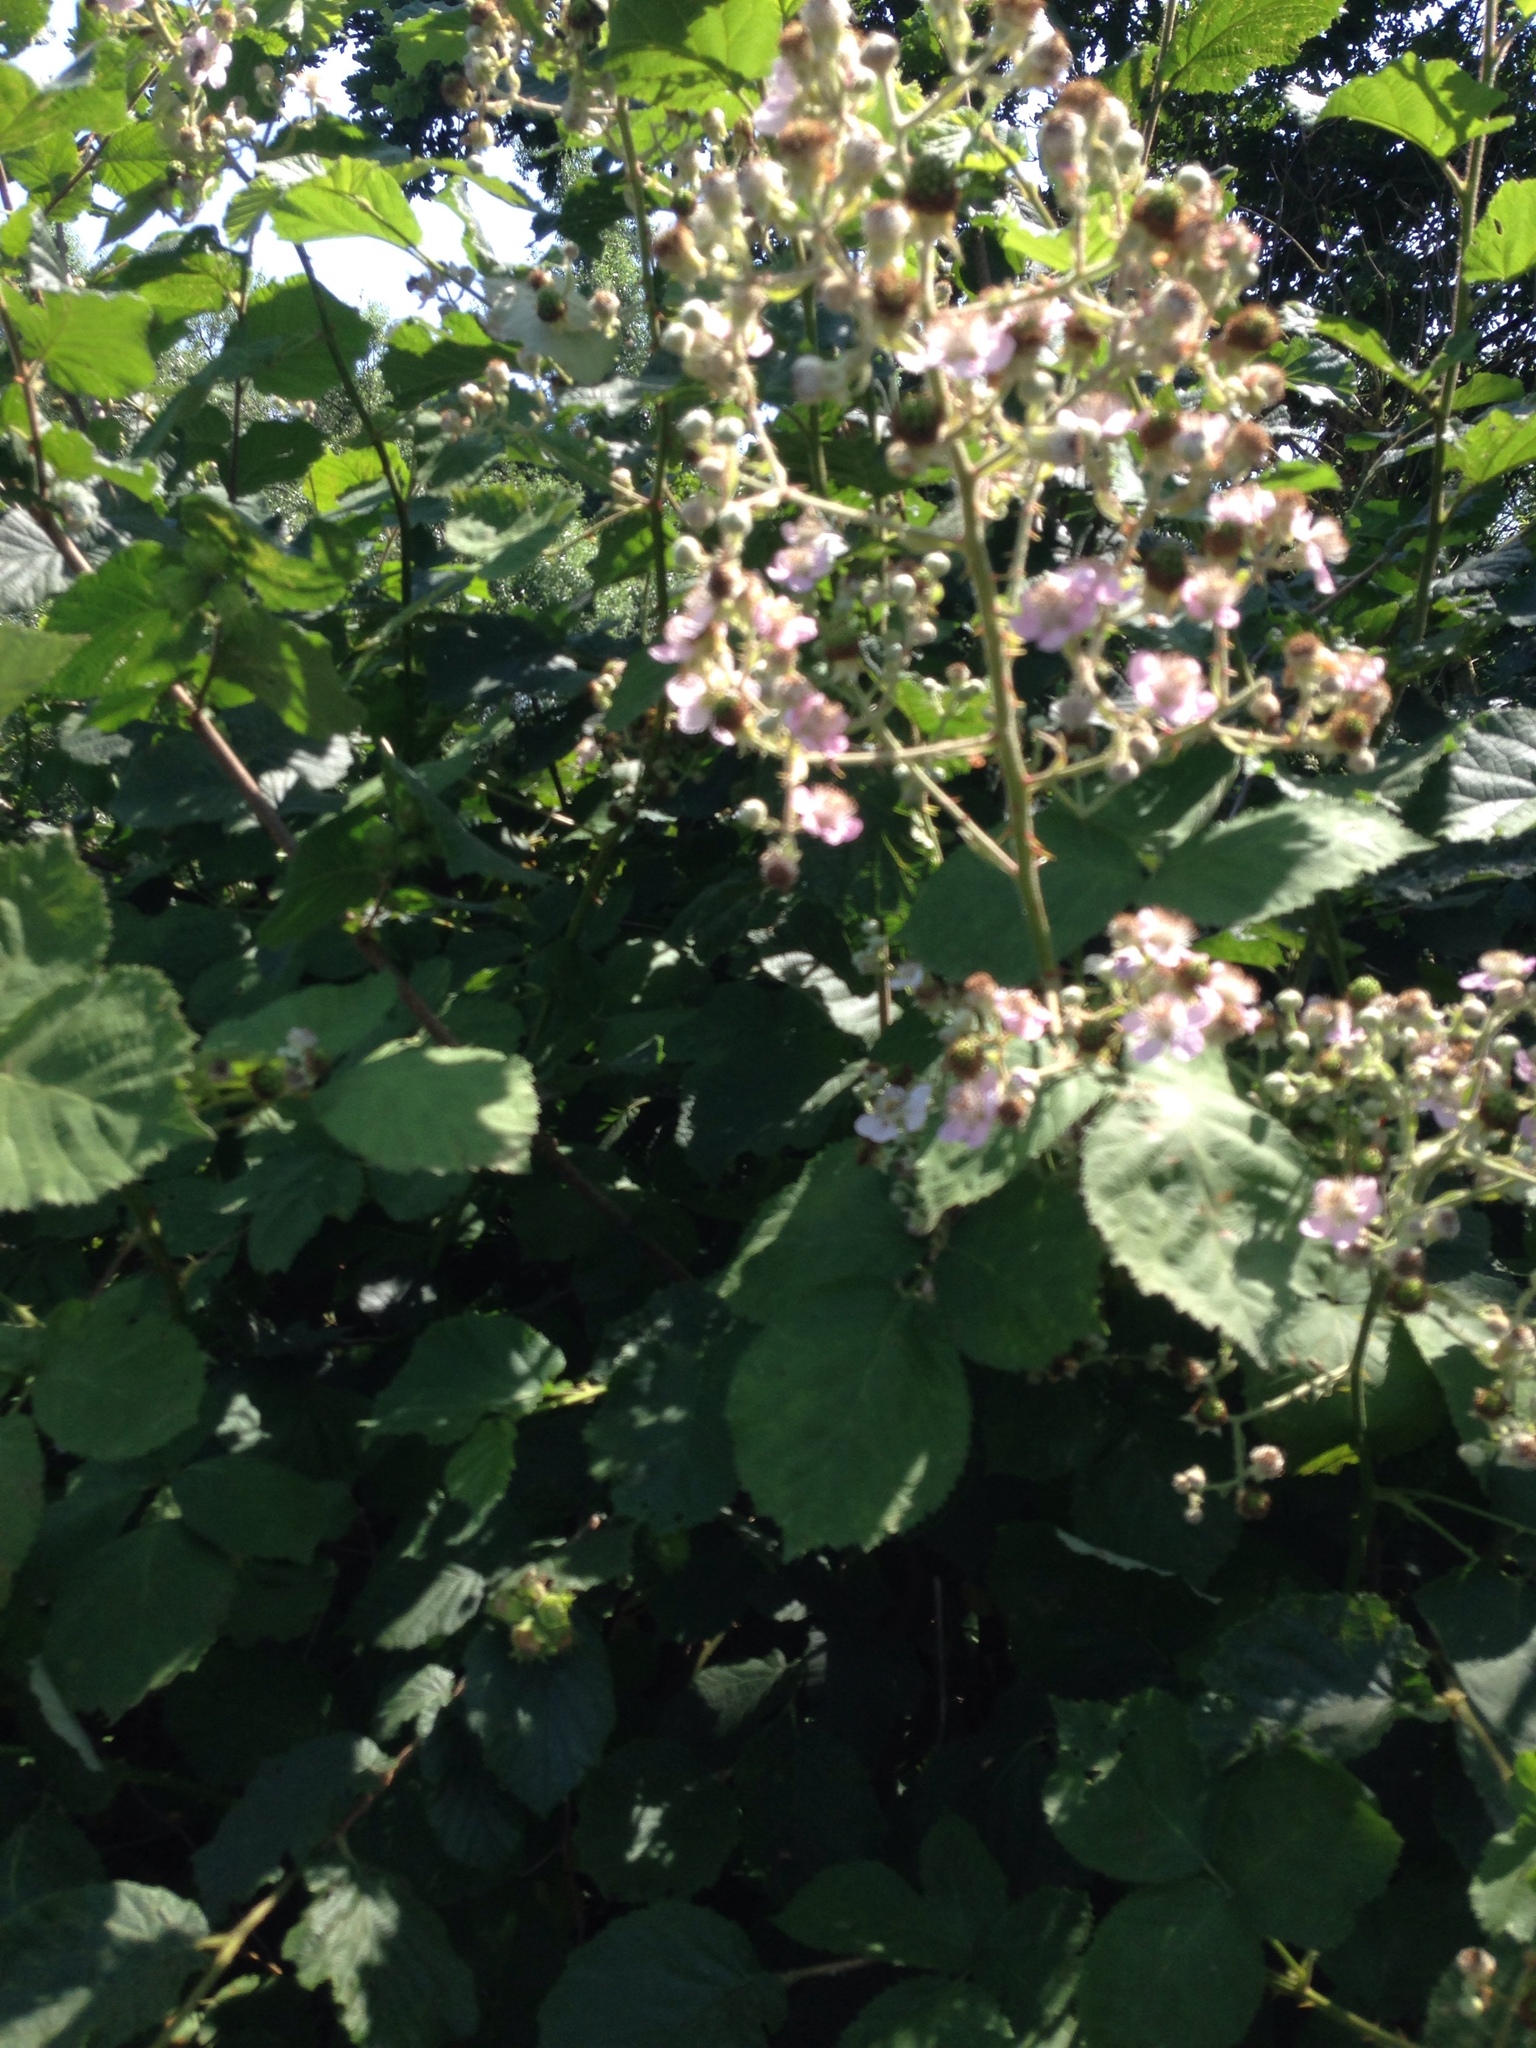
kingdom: Plantae
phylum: Tracheophyta
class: Magnoliopsida
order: Rosales
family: Rosaceae
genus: Rubus
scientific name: Rubus armeniacus
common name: Himalayan blackberry
